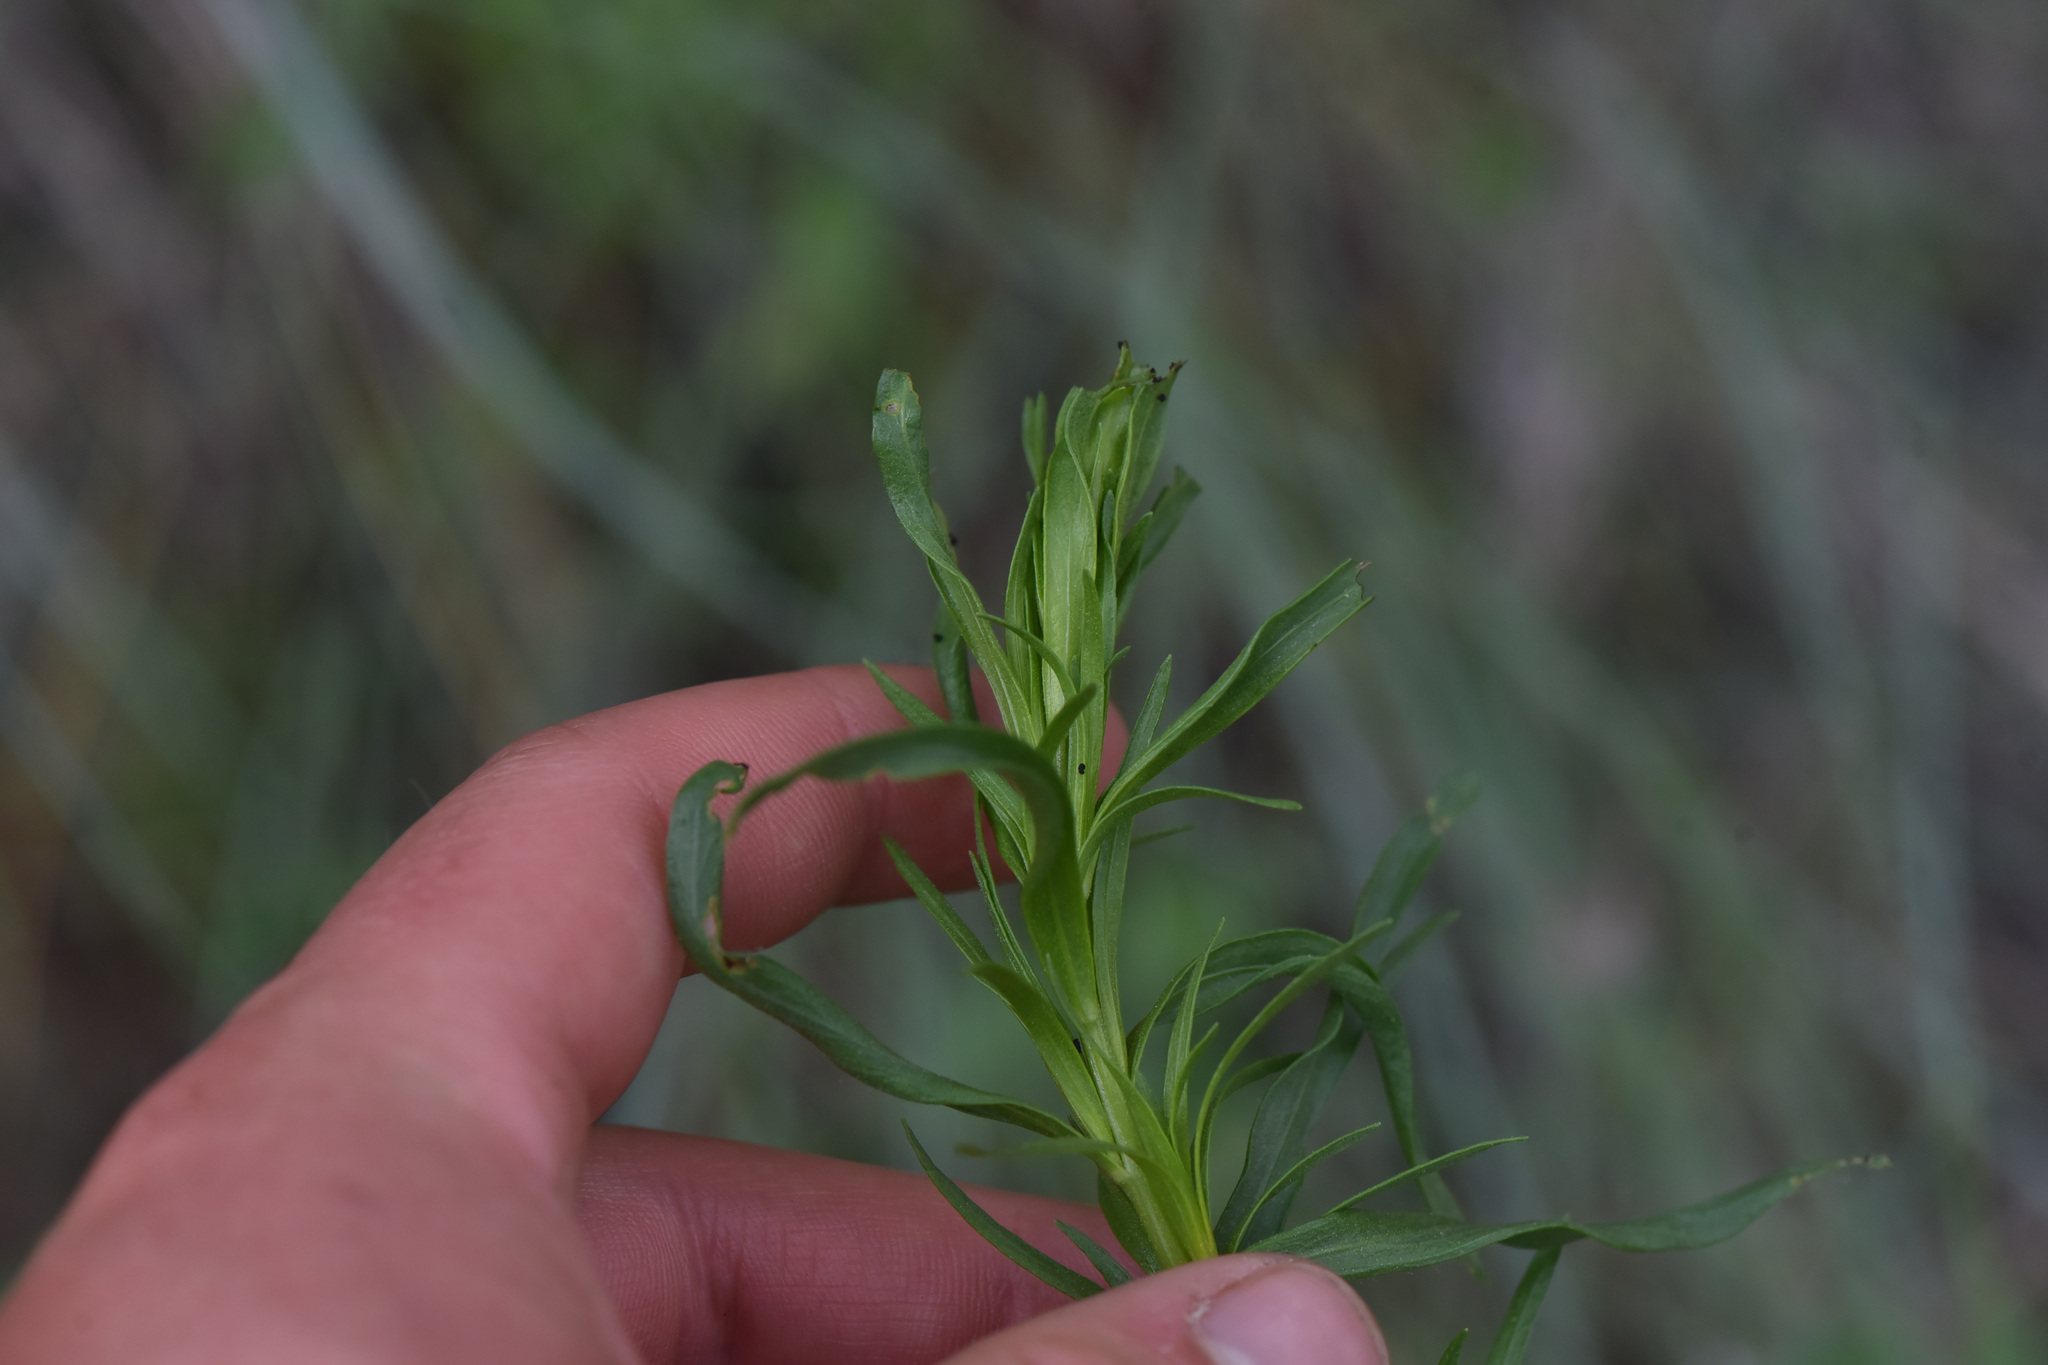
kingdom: Plantae
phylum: Tracheophyta
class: Magnoliopsida
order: Asterales
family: Asteraceae
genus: Artemisia
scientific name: Artemisia dracunculus
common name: Tarragon
